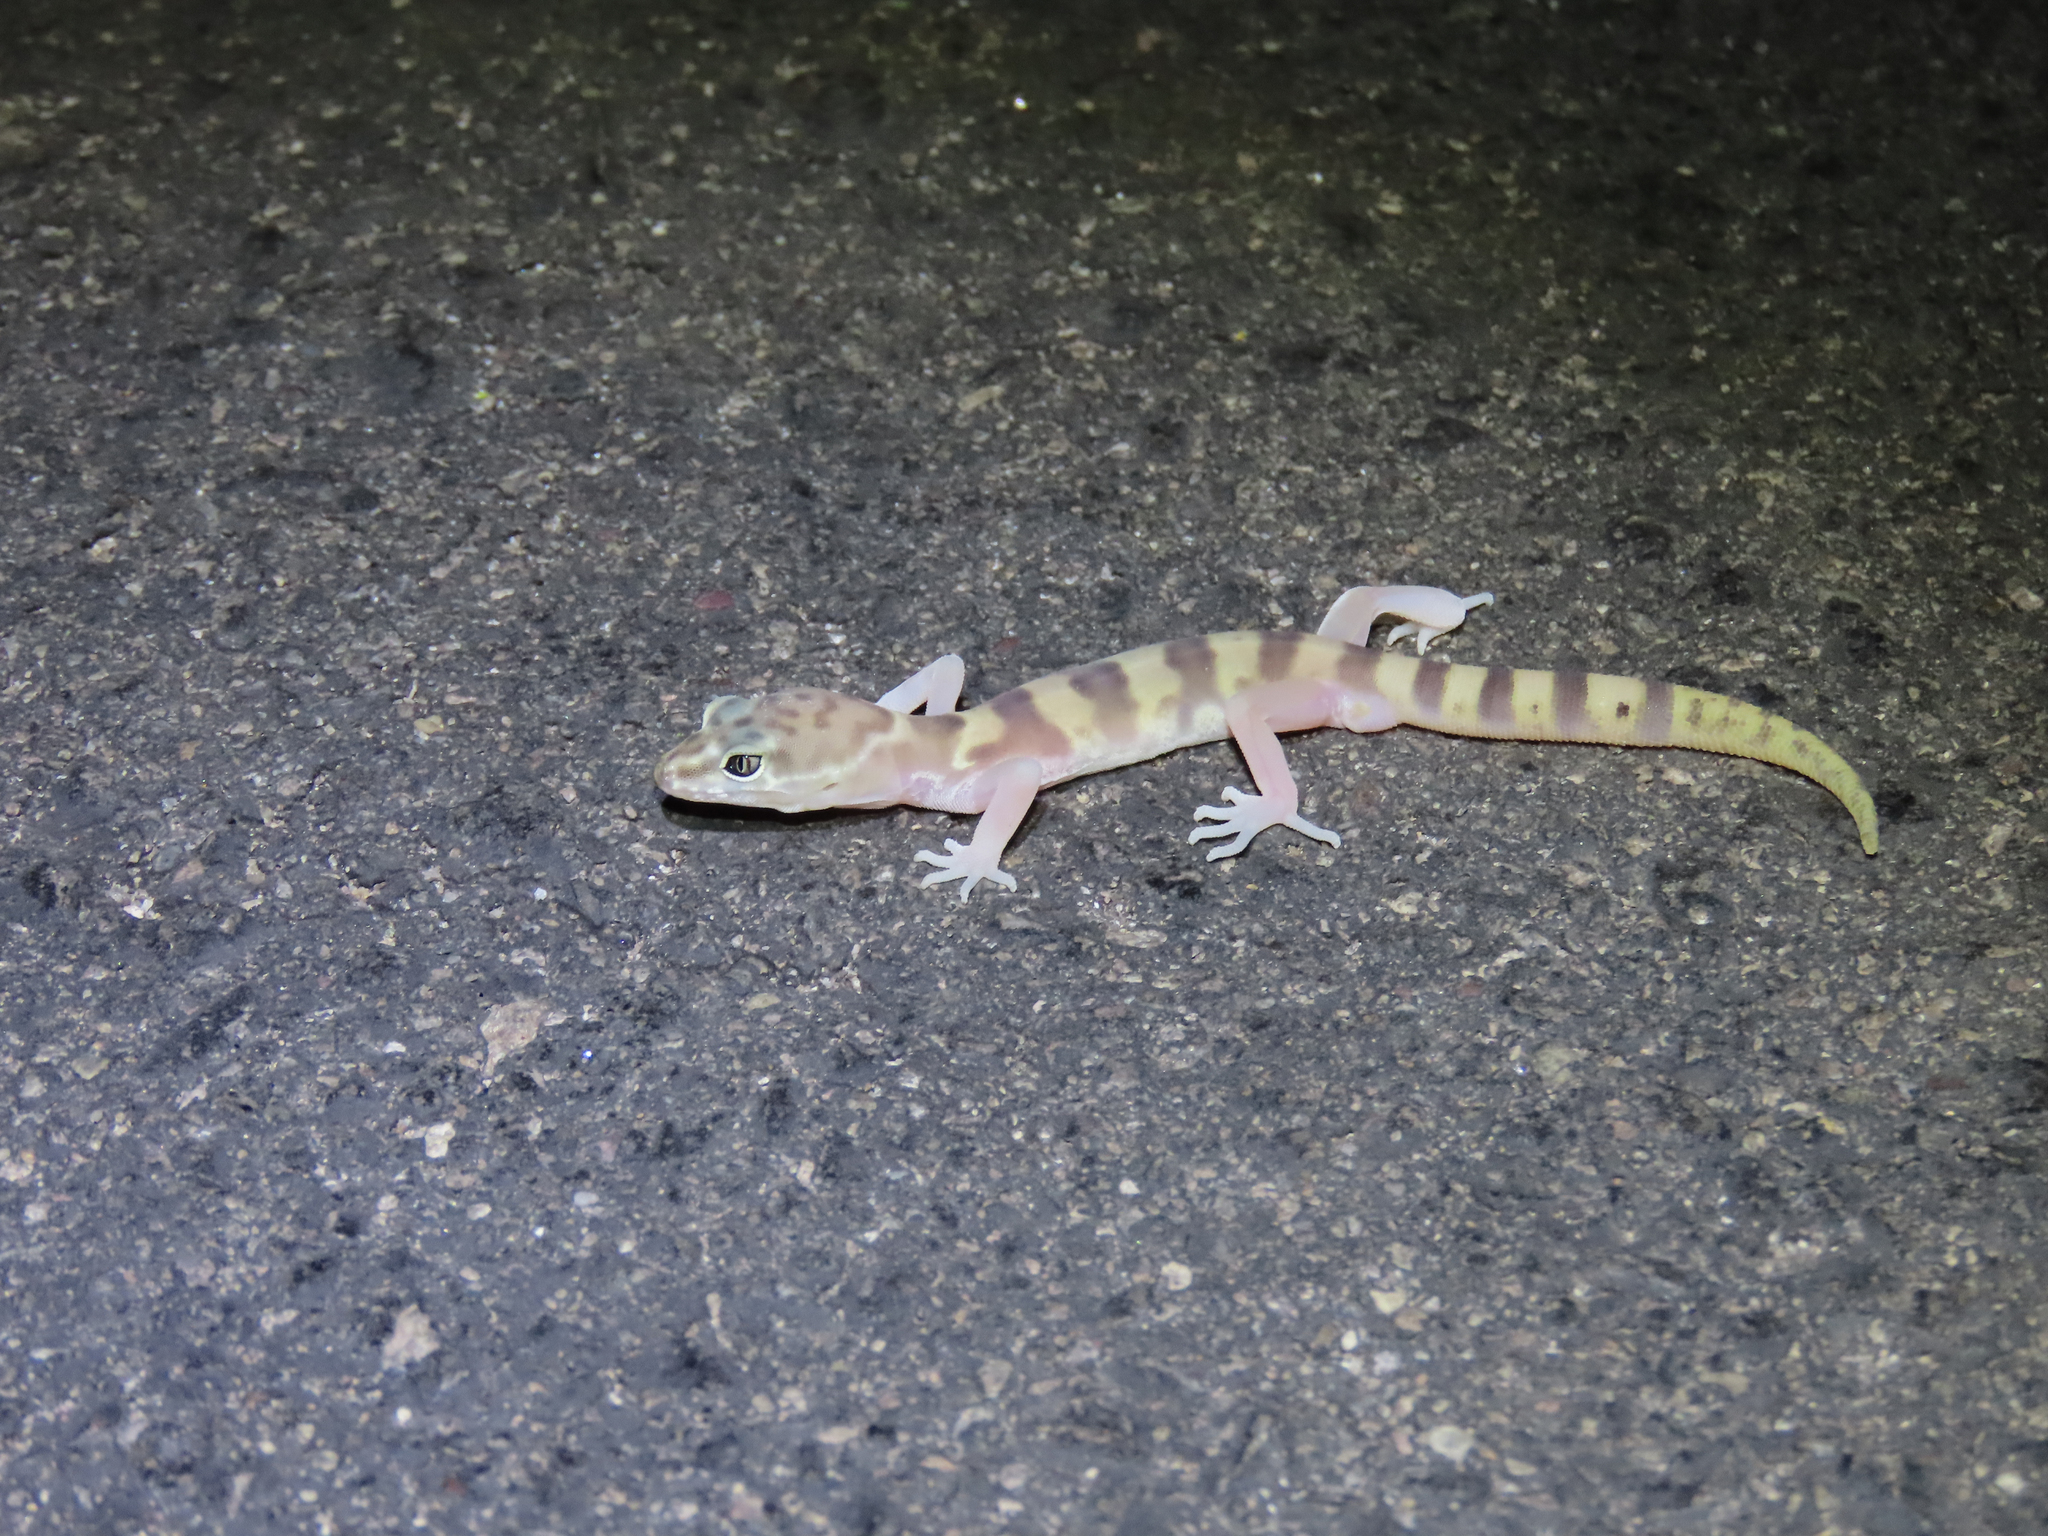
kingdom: Animalia
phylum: Chordata
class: Squamata
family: Eublepharidae
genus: Coleonyx
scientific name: Coleonyx variegatus
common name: Western banded gecko
